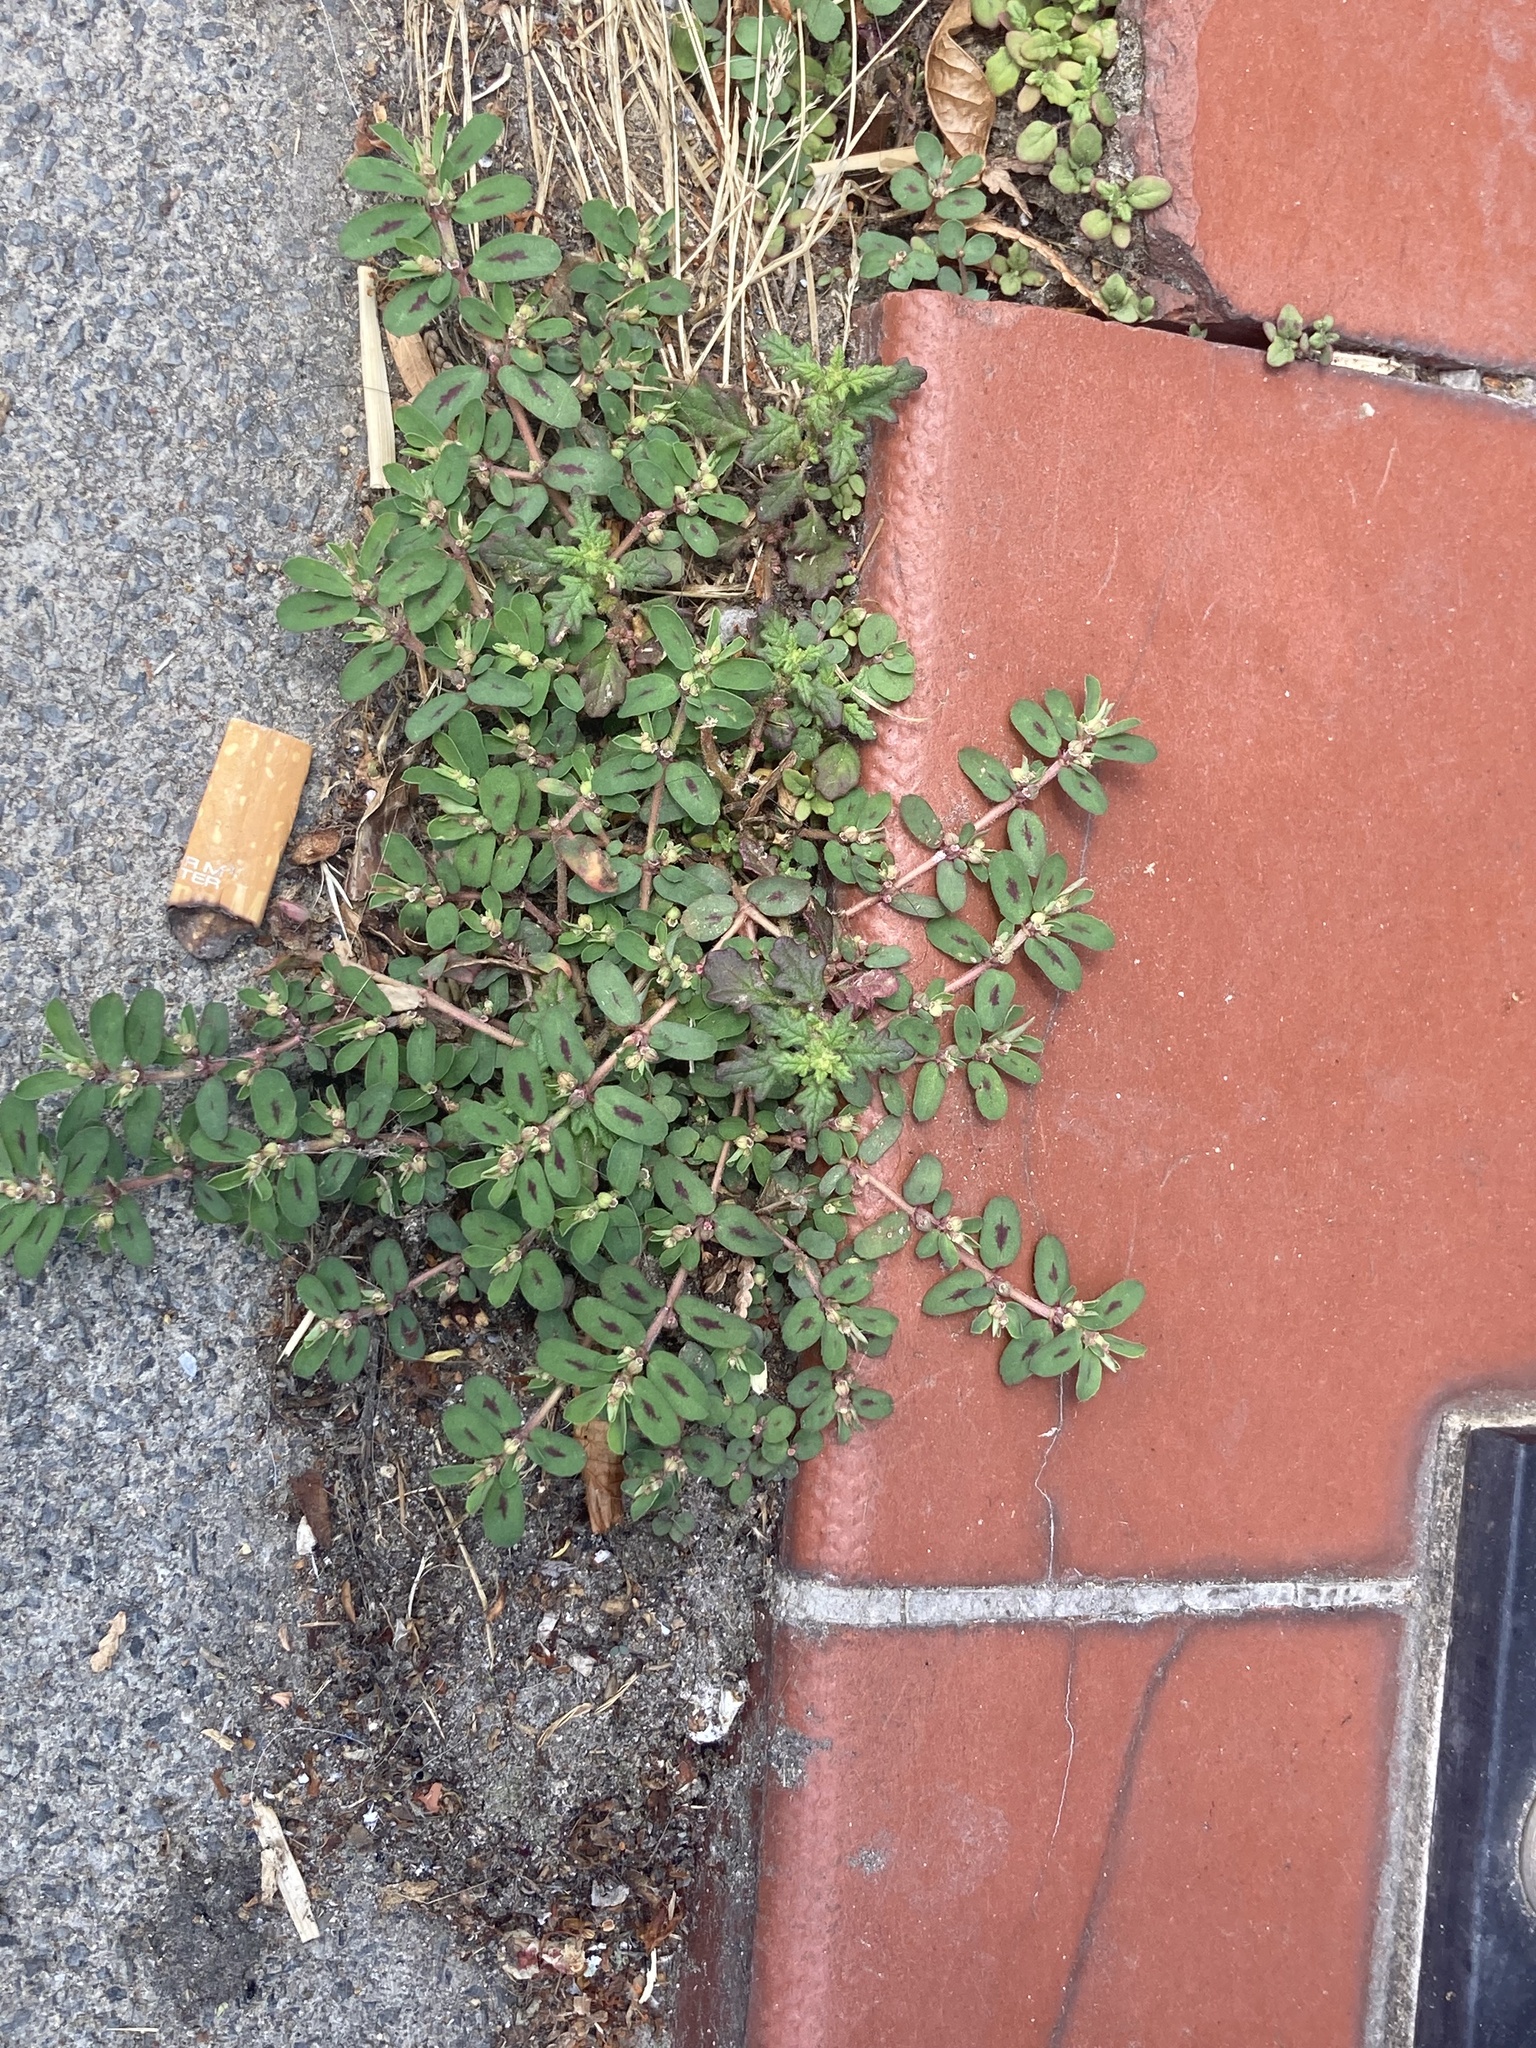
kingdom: Plantae
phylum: Tracheophyta
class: Magnoliopsida
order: Malpighiales
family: Euphorbiaceae
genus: Euphorbia
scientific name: Euphorbia maculata
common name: Spotted spurge
